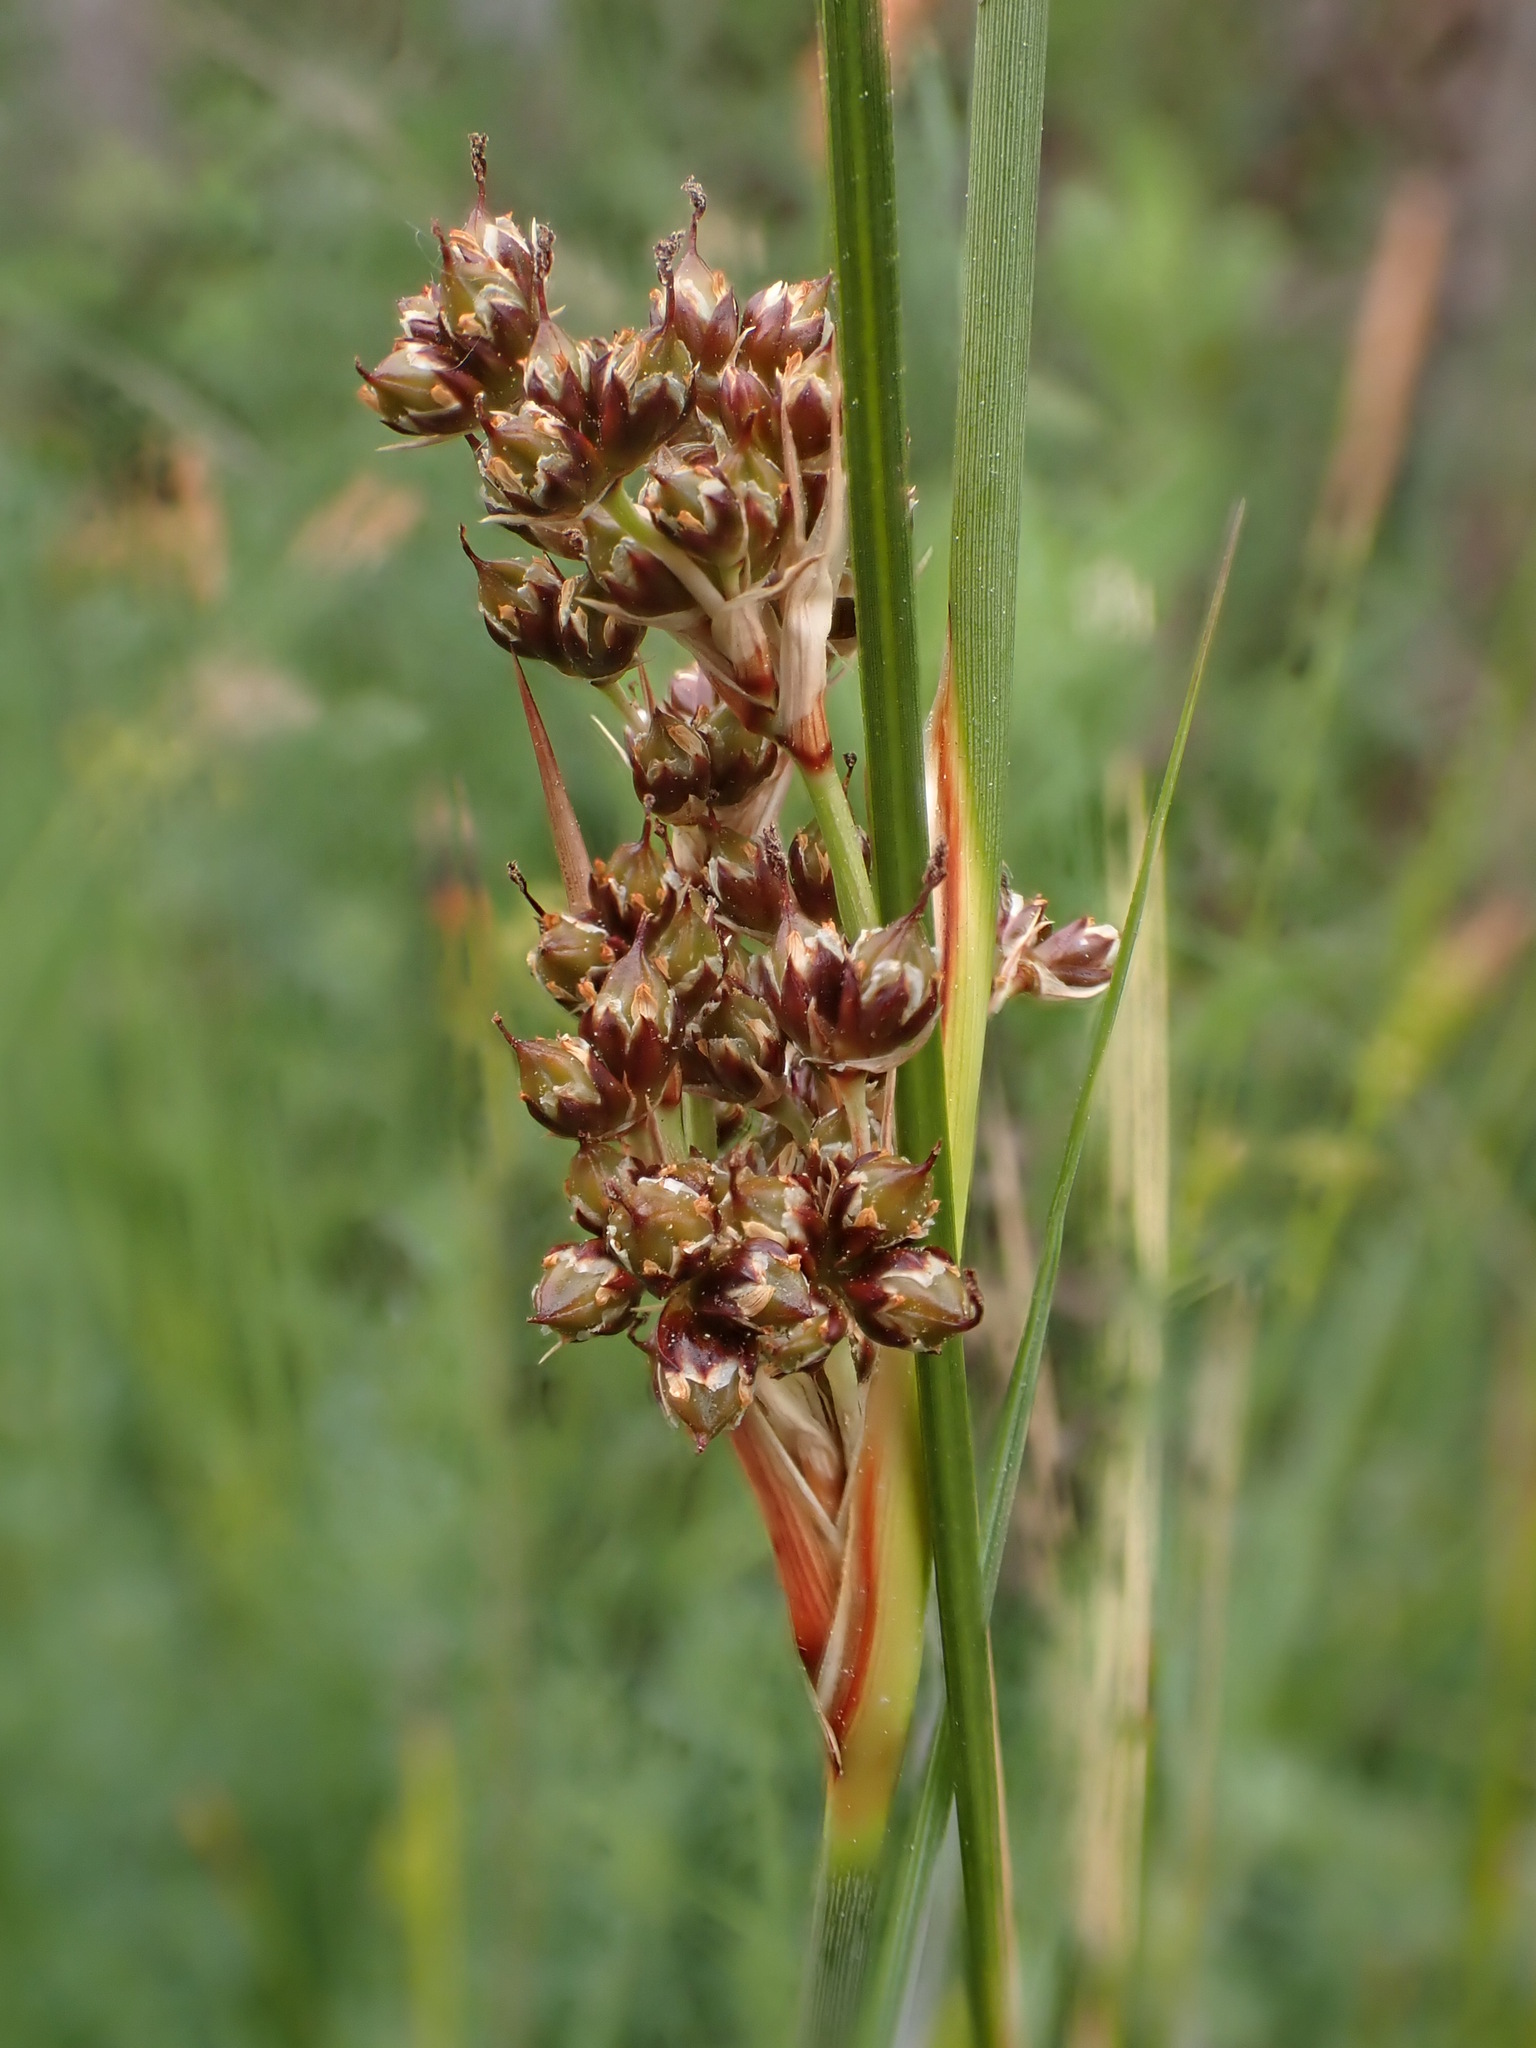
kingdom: Plantae
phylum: Tracheophyta
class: Liliopsida
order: Poales
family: Juncaceae
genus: Juncus
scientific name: Juncus acutus
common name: Sharp rush
